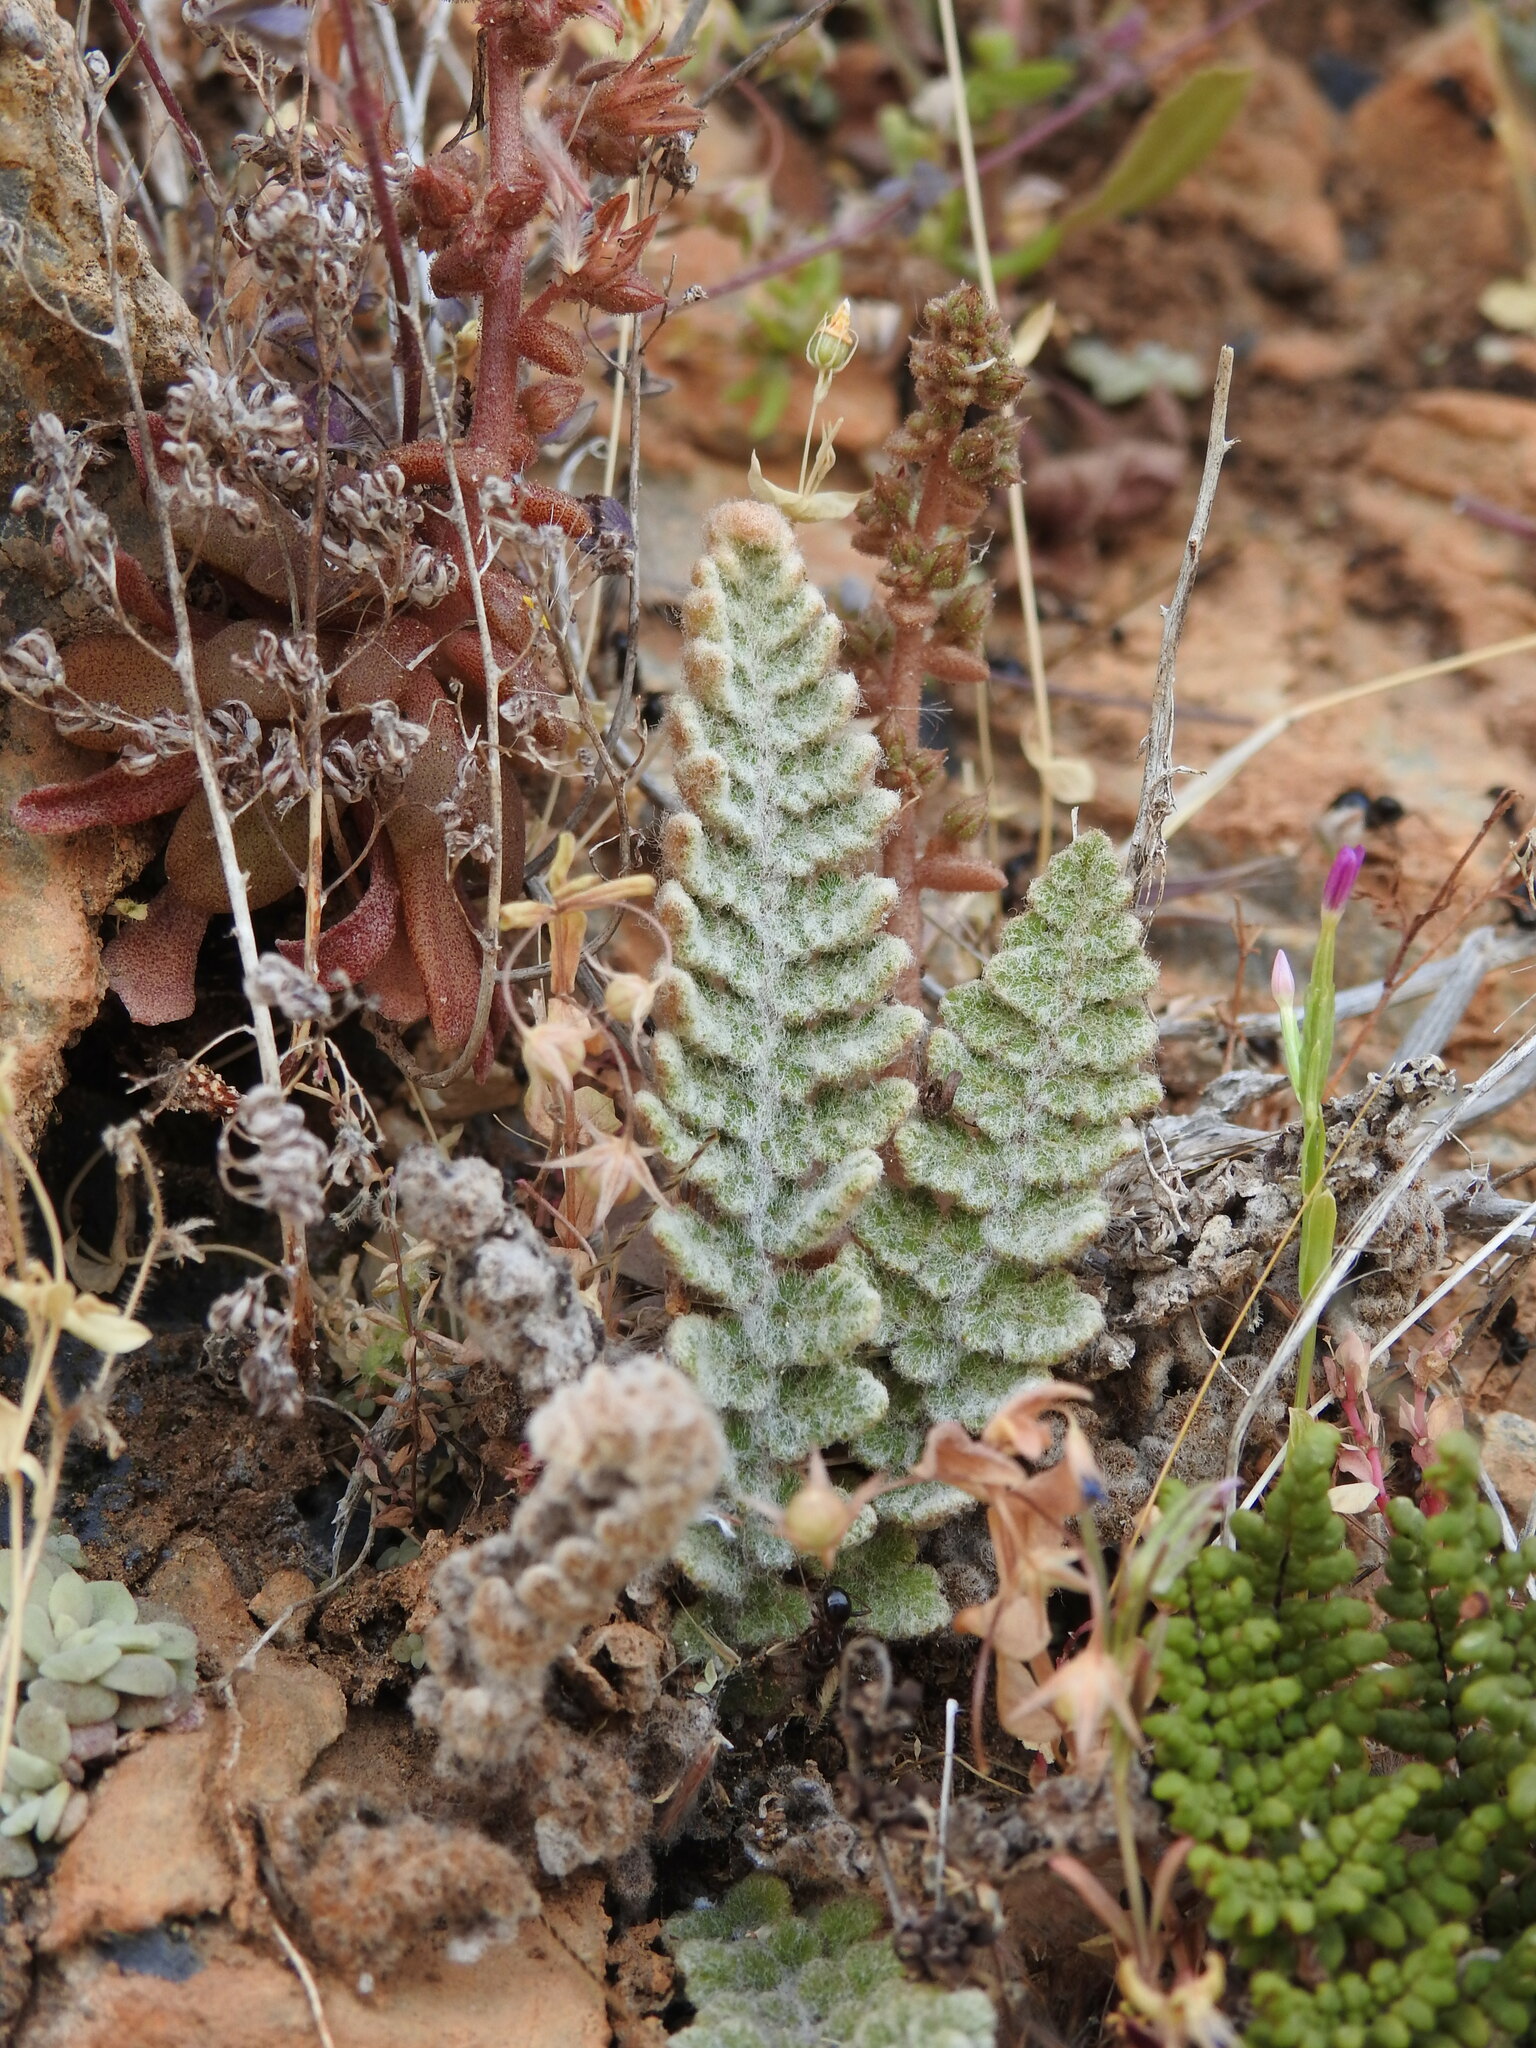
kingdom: Plantae
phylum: Tracheophyta
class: Polypodiopsida
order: Polypodiales
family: Pteridaceae
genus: Cosentinia
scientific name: Cosentinia vellea
